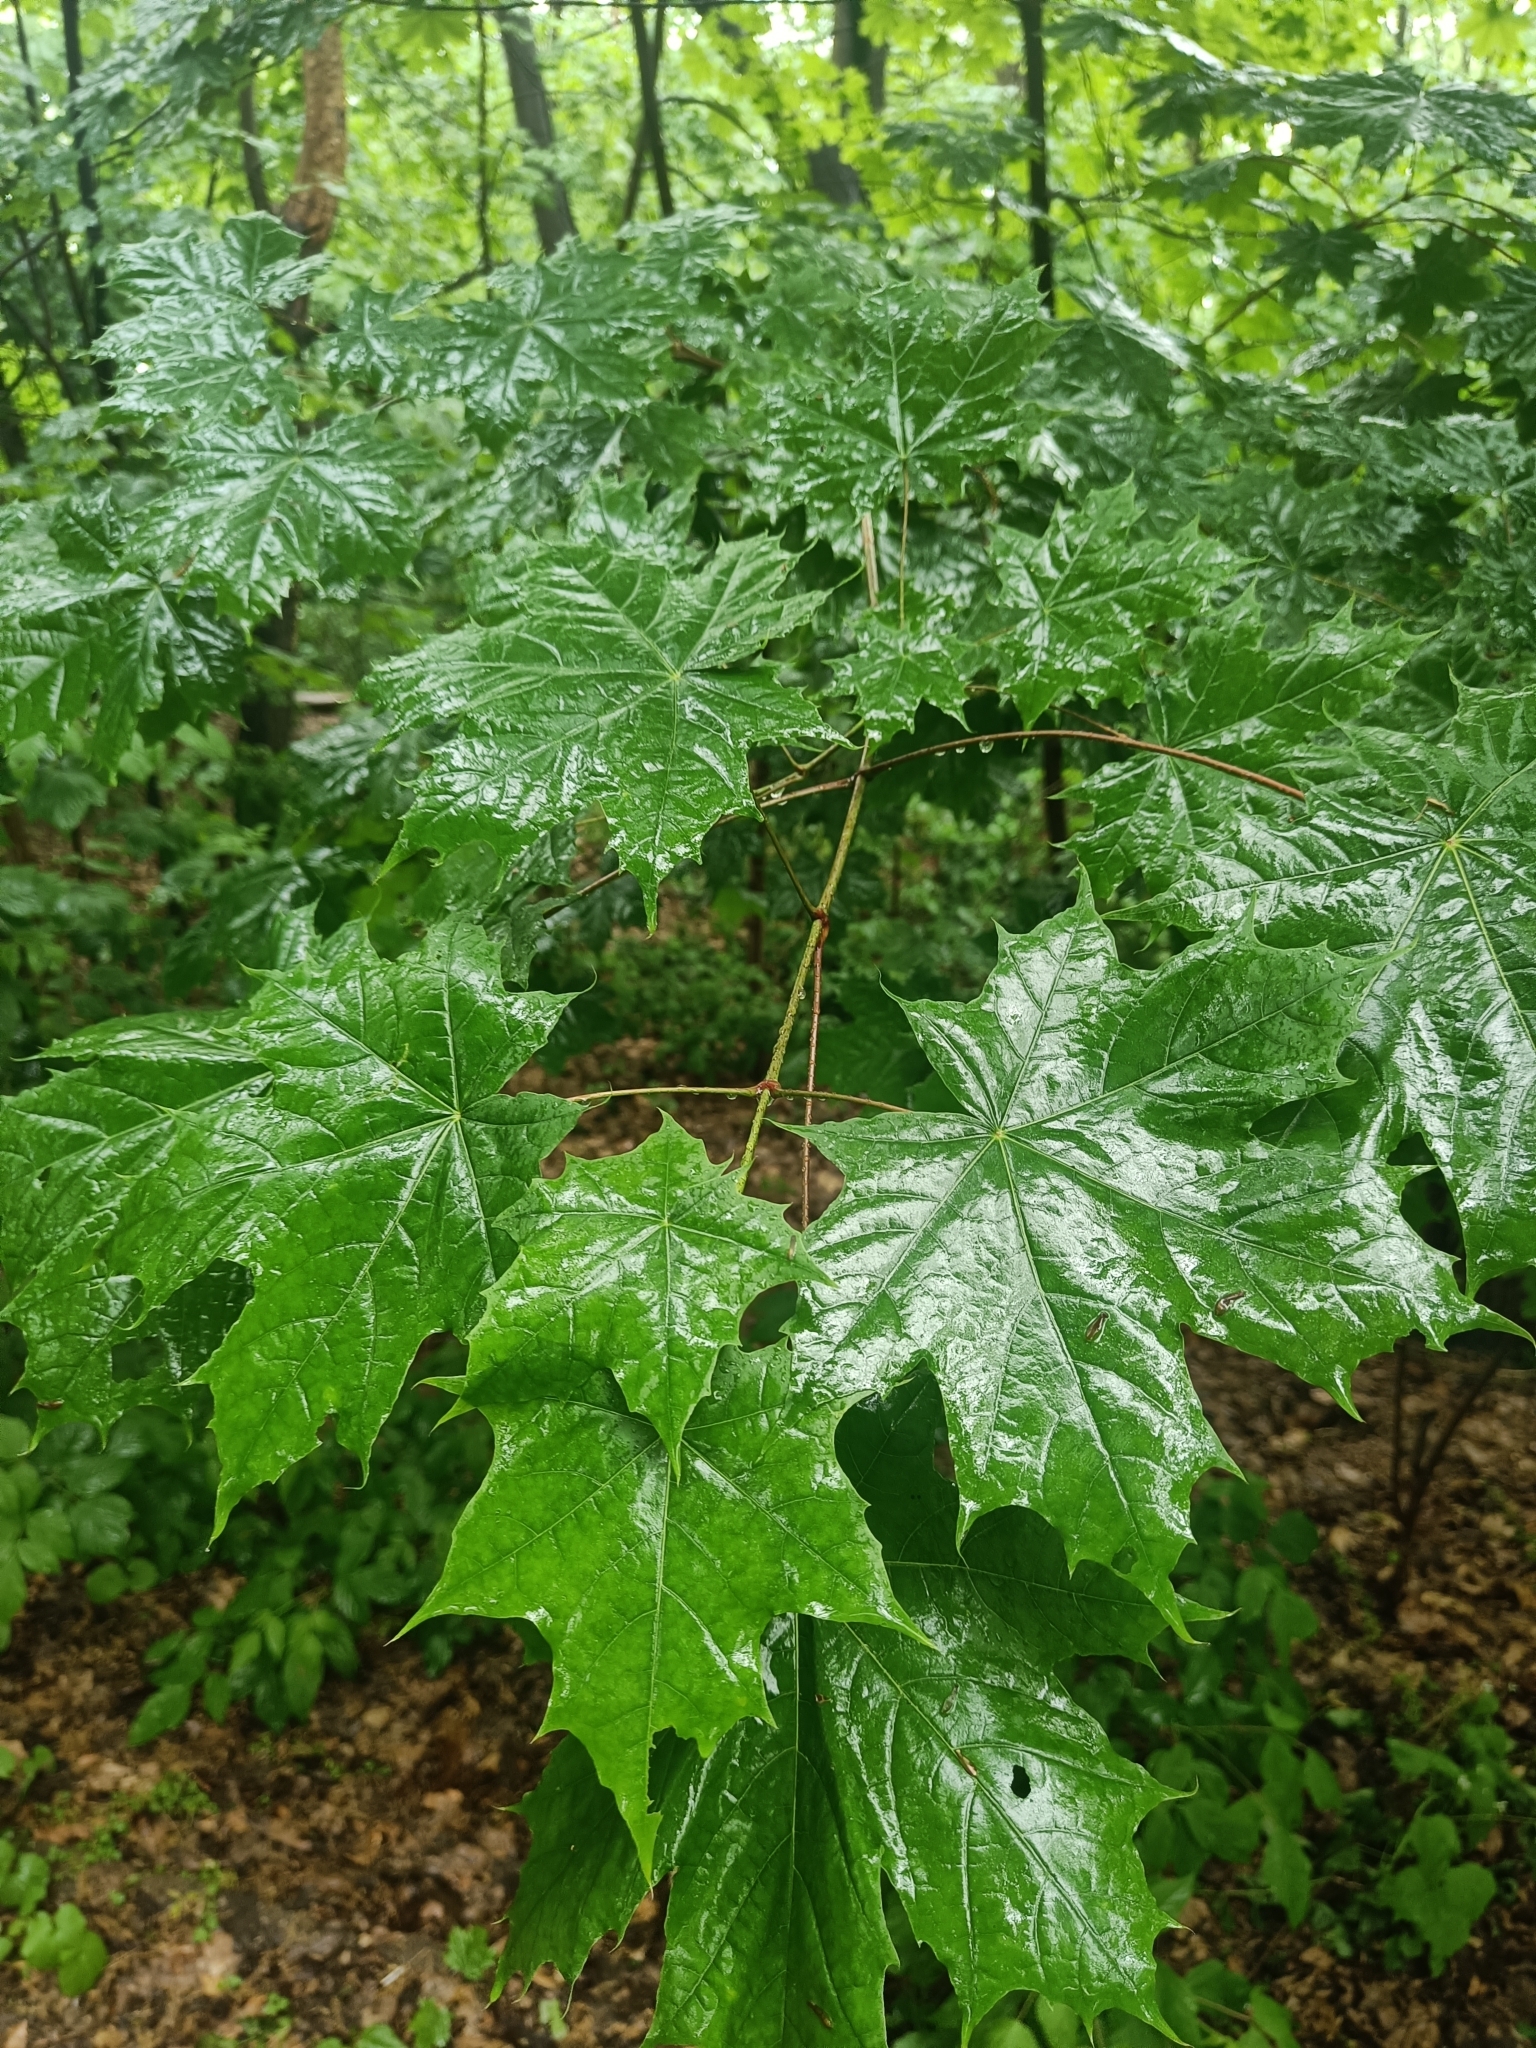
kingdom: Plantae
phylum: Tracheophyta
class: Magnoliopsida
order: Sapindales
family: Sapindaceae
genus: Acer
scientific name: Acer platanoides
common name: Norway maple
